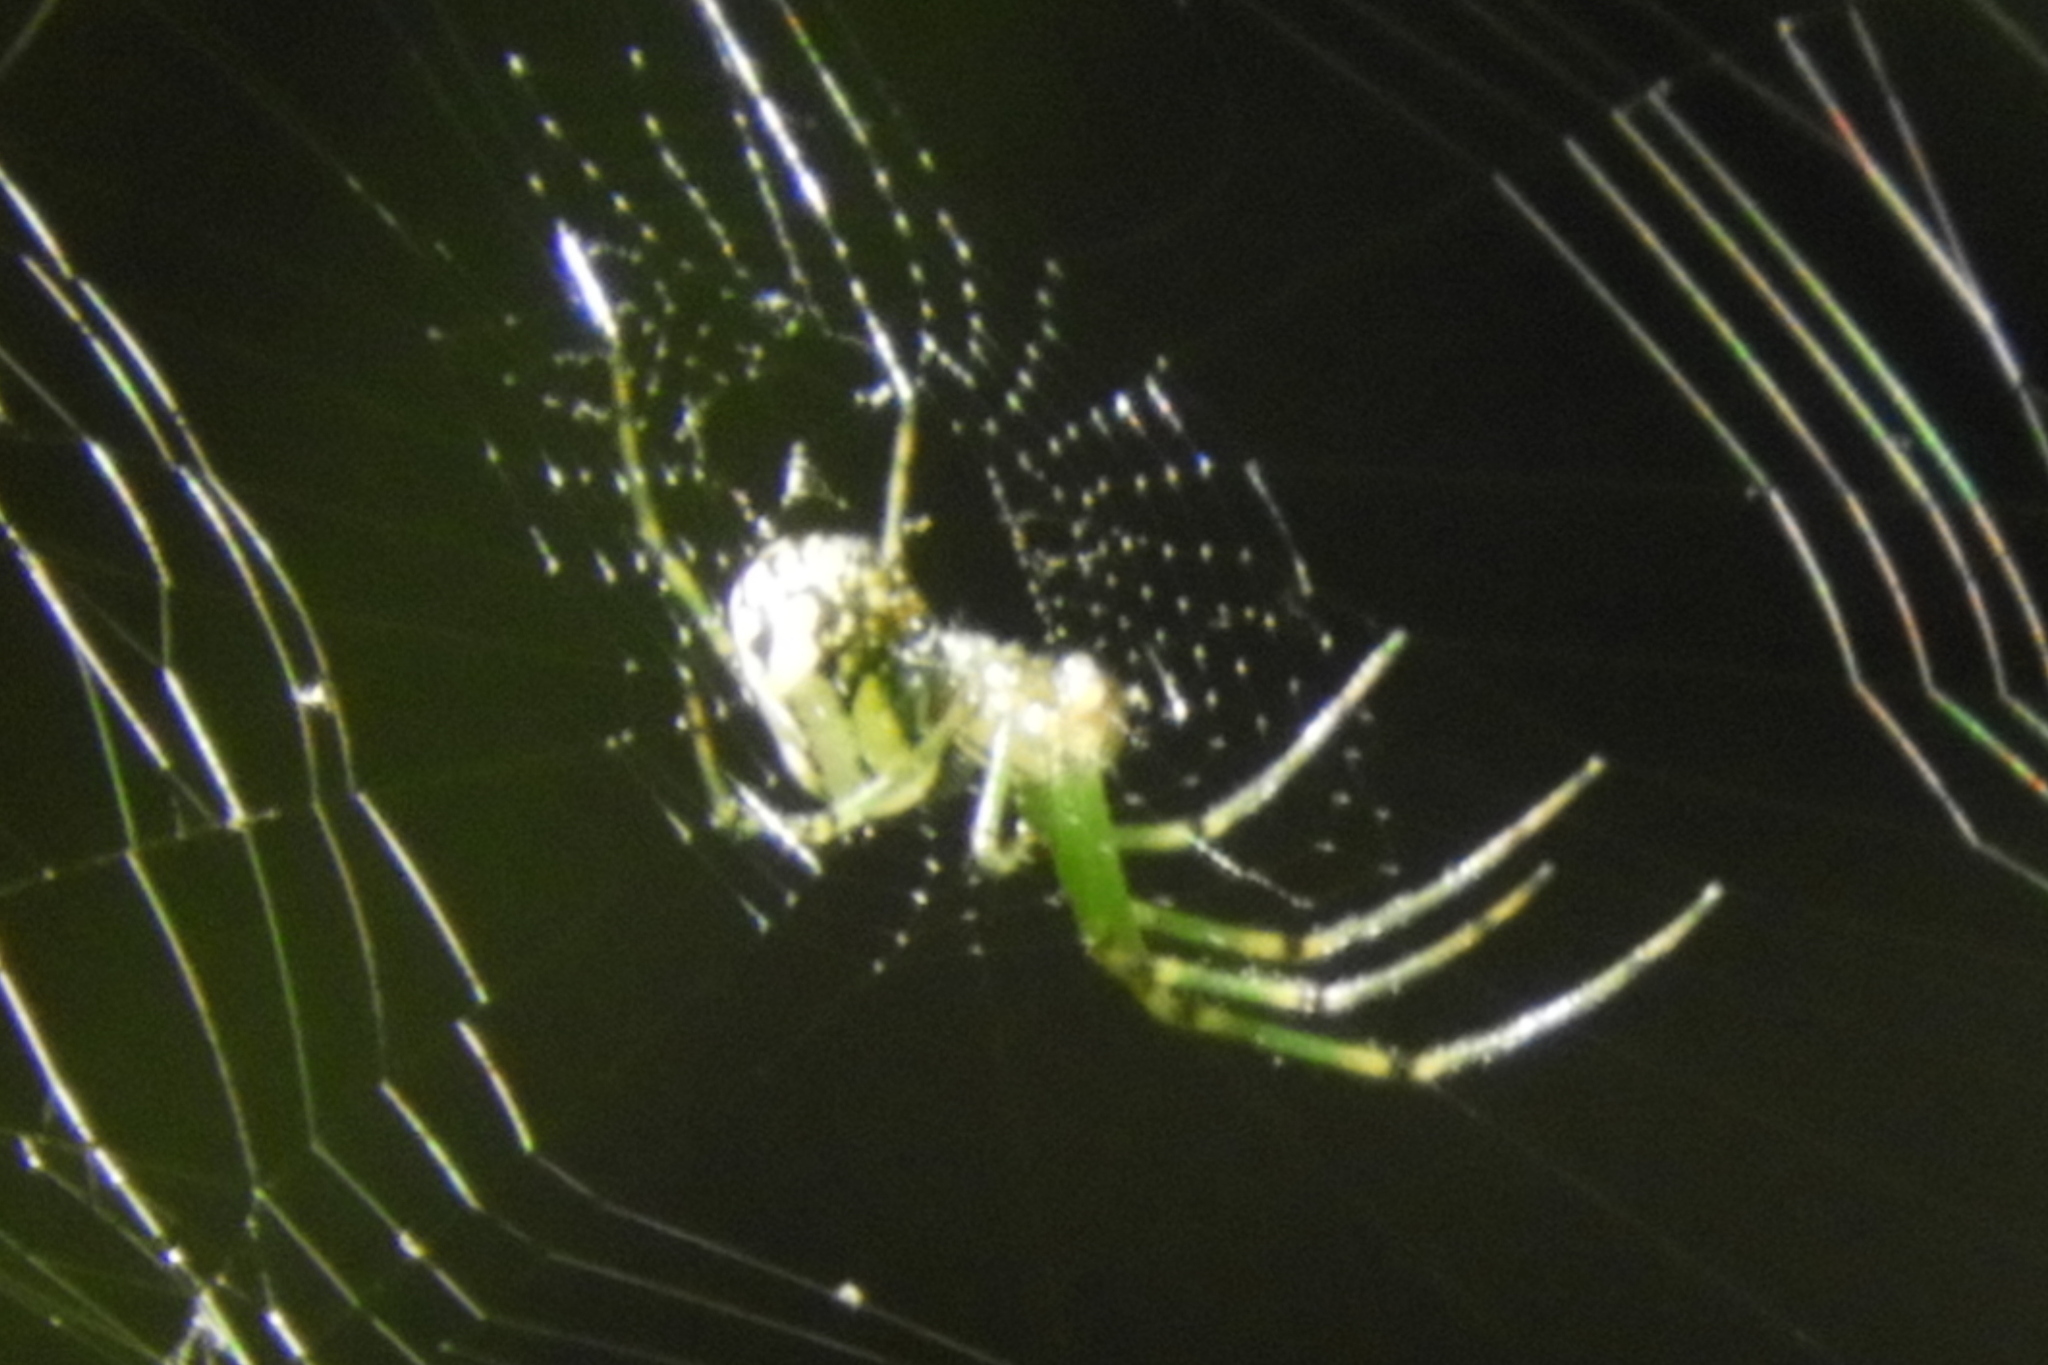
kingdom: Animalia
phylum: Arthropoda
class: Arachnida
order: Araneae
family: Tetragnathidae
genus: Leucauge
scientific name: Leucauge venusta
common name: Longjawed orb weavers
